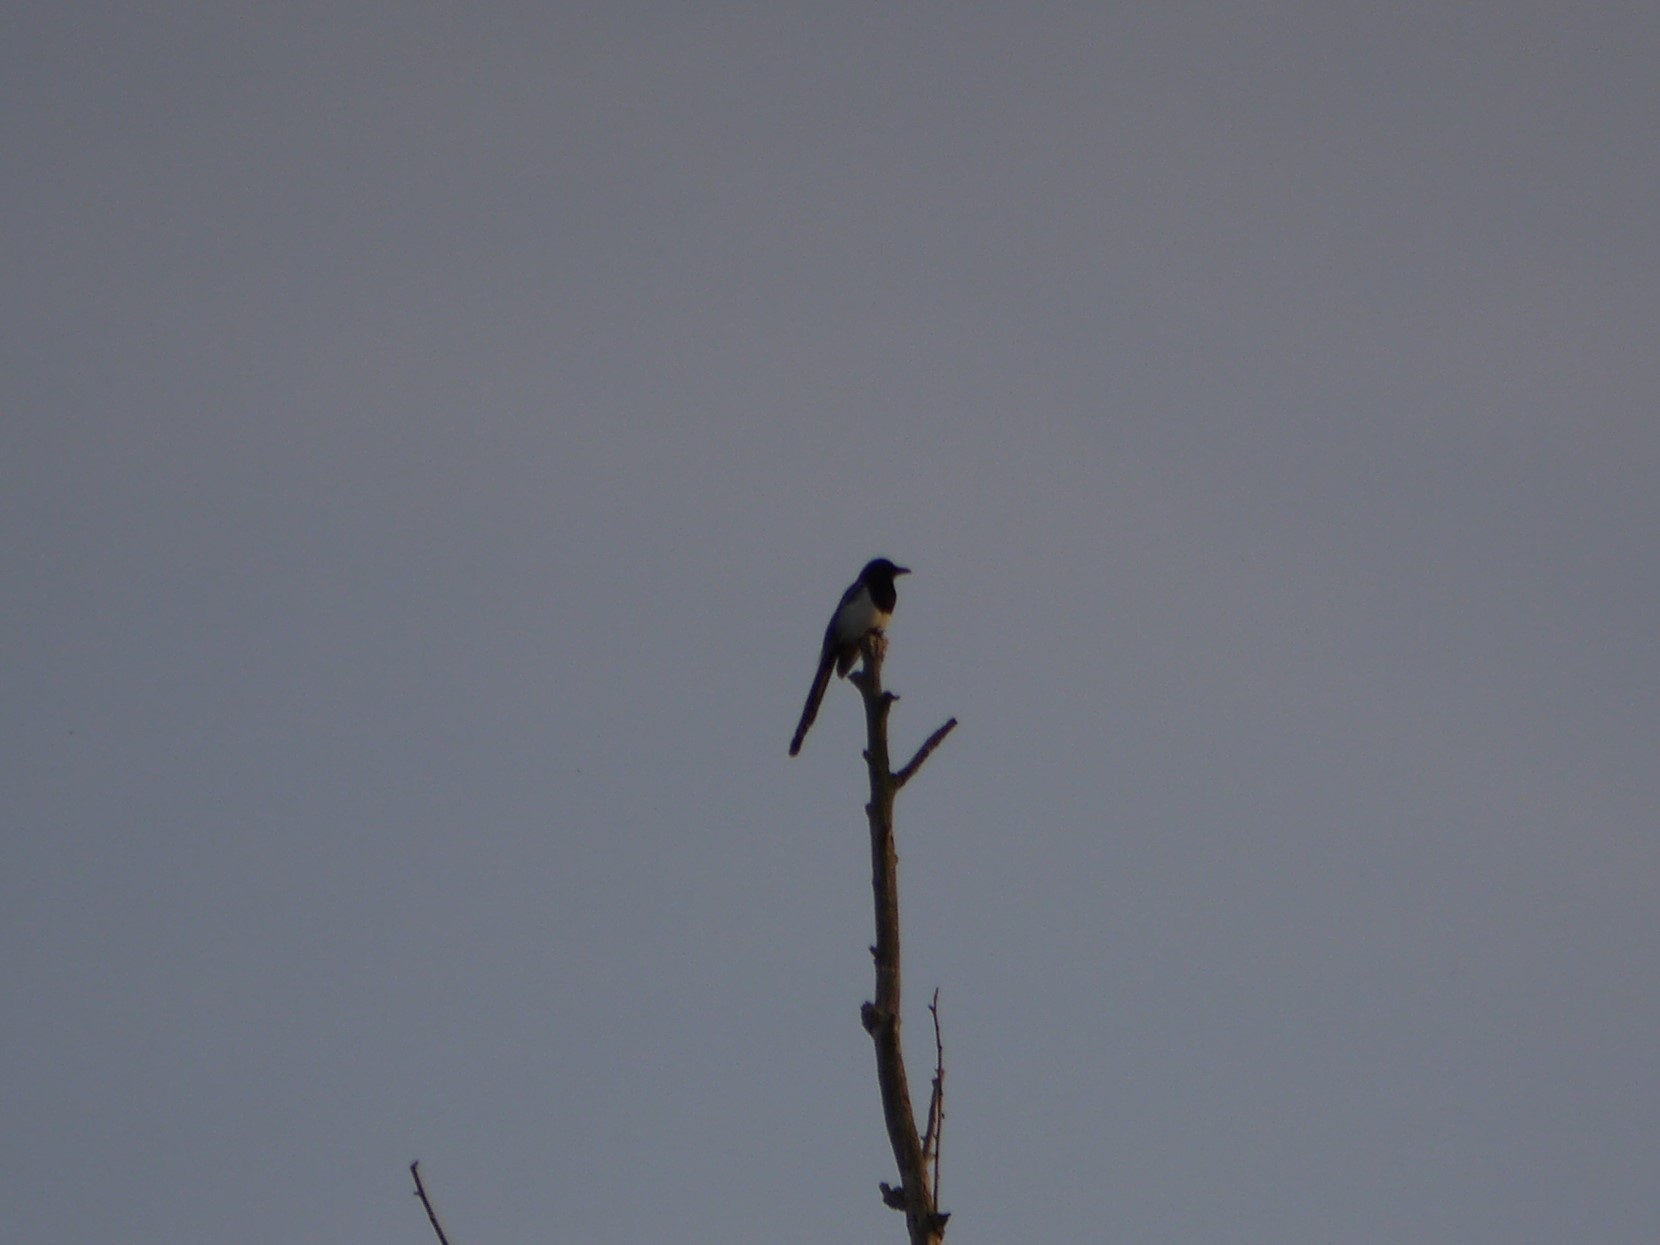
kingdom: Animalia
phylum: Chordata
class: Aves
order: Passeriformes
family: Corvidae
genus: Pica
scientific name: Pica pica
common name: Eurasian magpie
